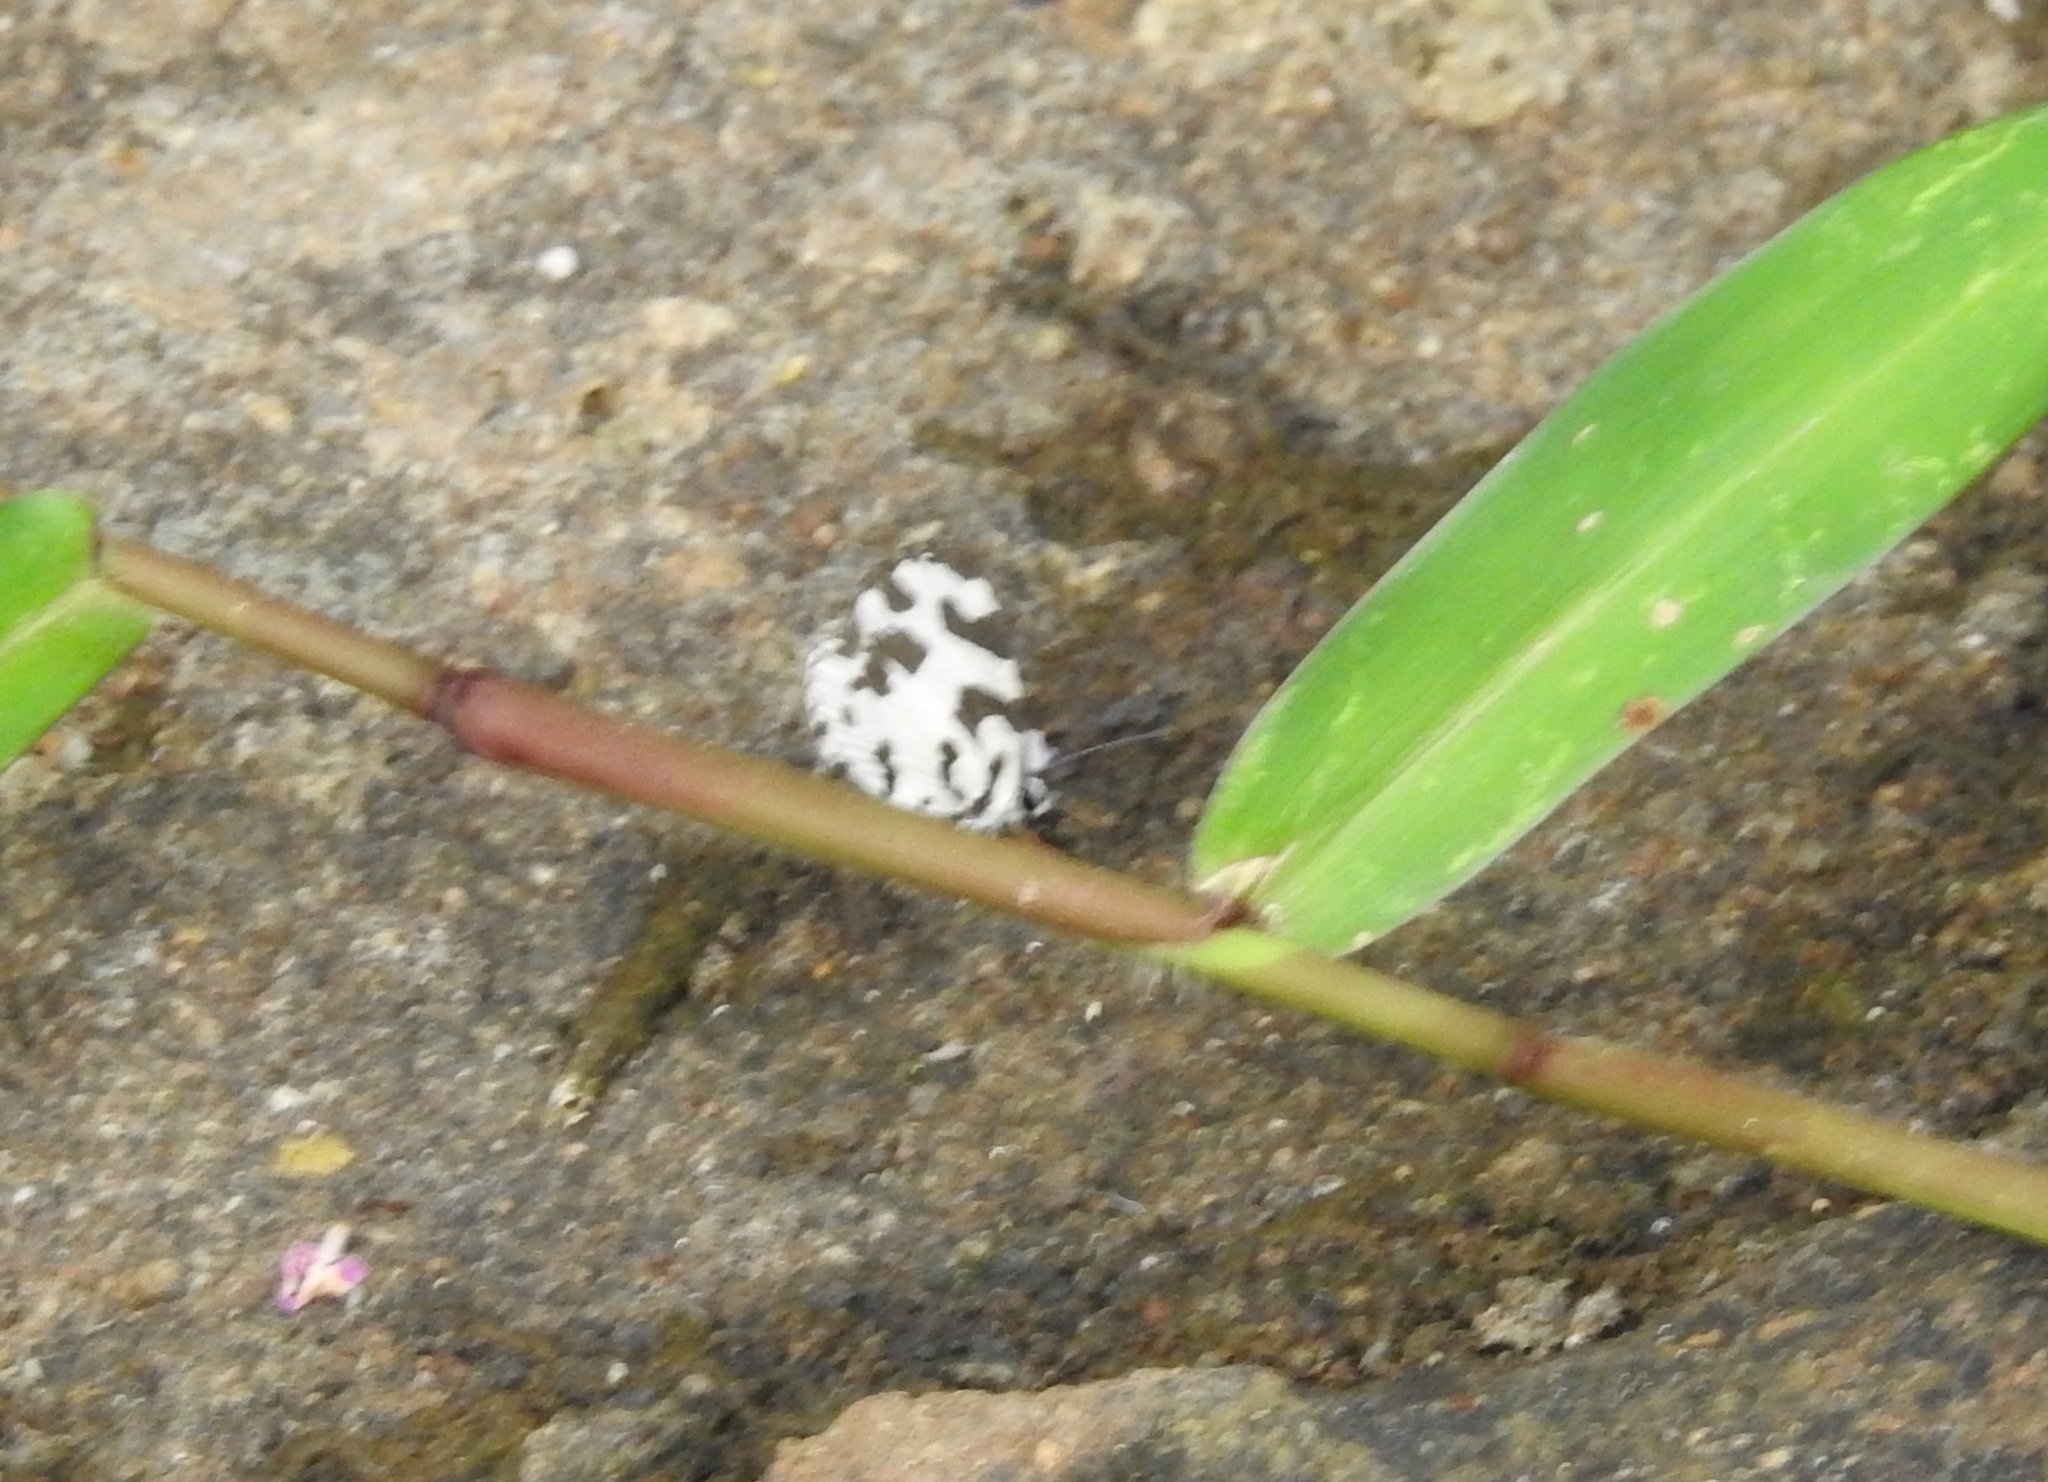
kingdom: Animalia
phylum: Arthropoda
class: Insecta
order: Lepidoptera
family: Lycaenidae
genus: Caleta
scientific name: Caleta decidia
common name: Angled pierrot
